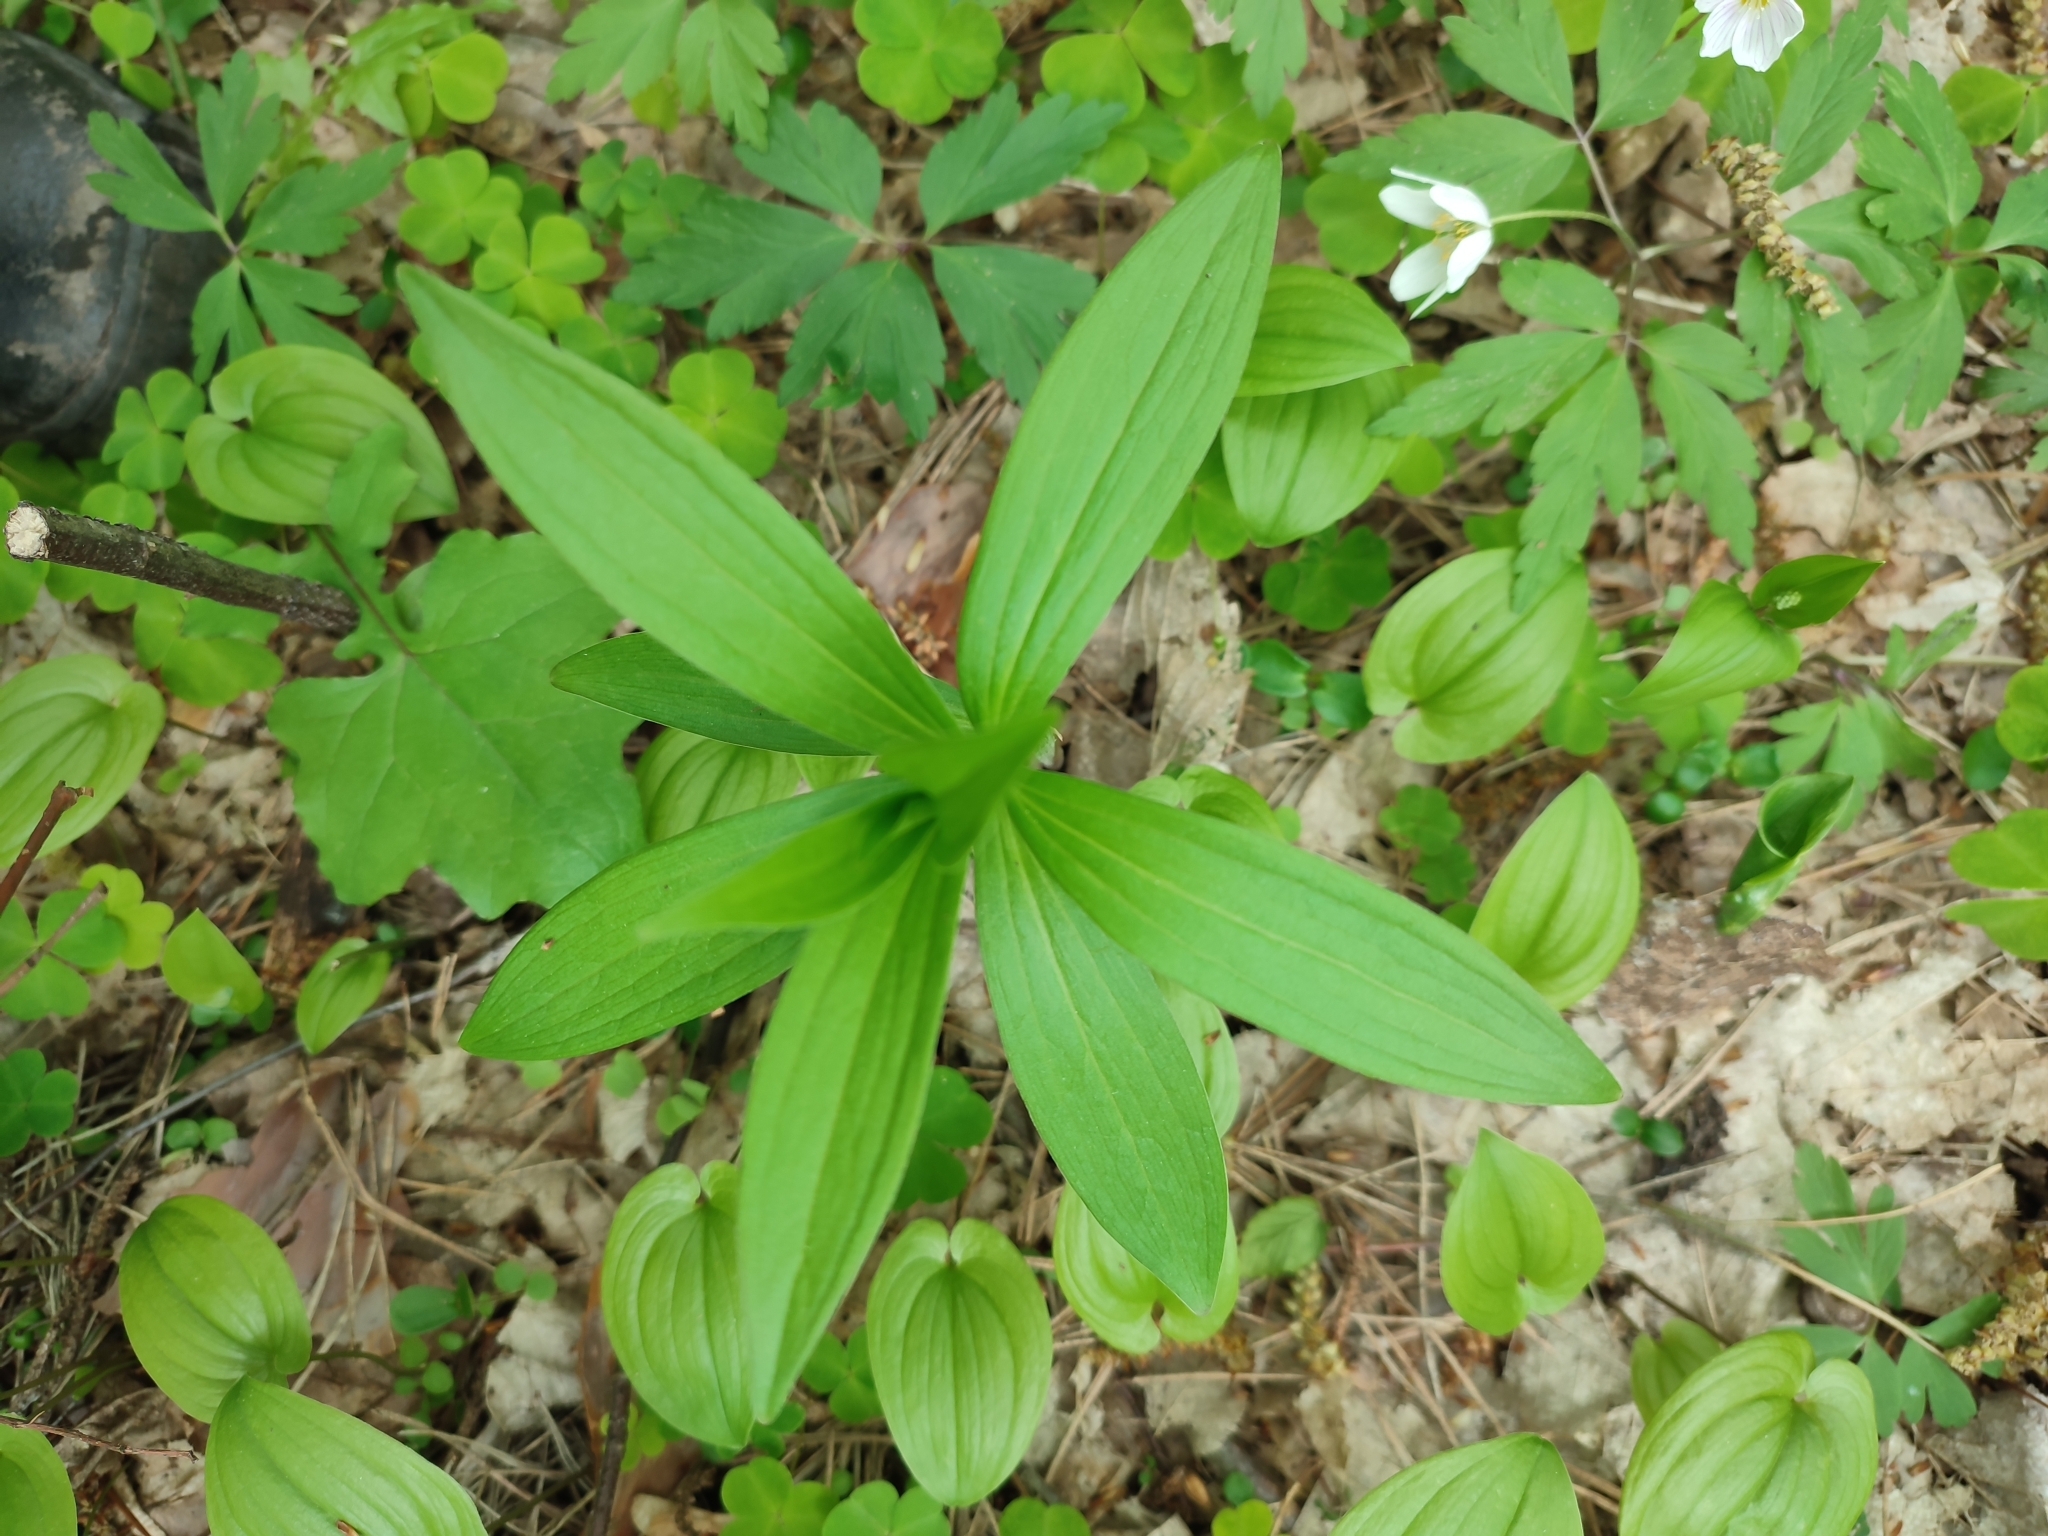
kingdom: Plantae
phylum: Tracheophyta
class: Liliopsida
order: Liliales
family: Liliaceae
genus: Lilium
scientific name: Lilium martagon
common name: Martagon lily
